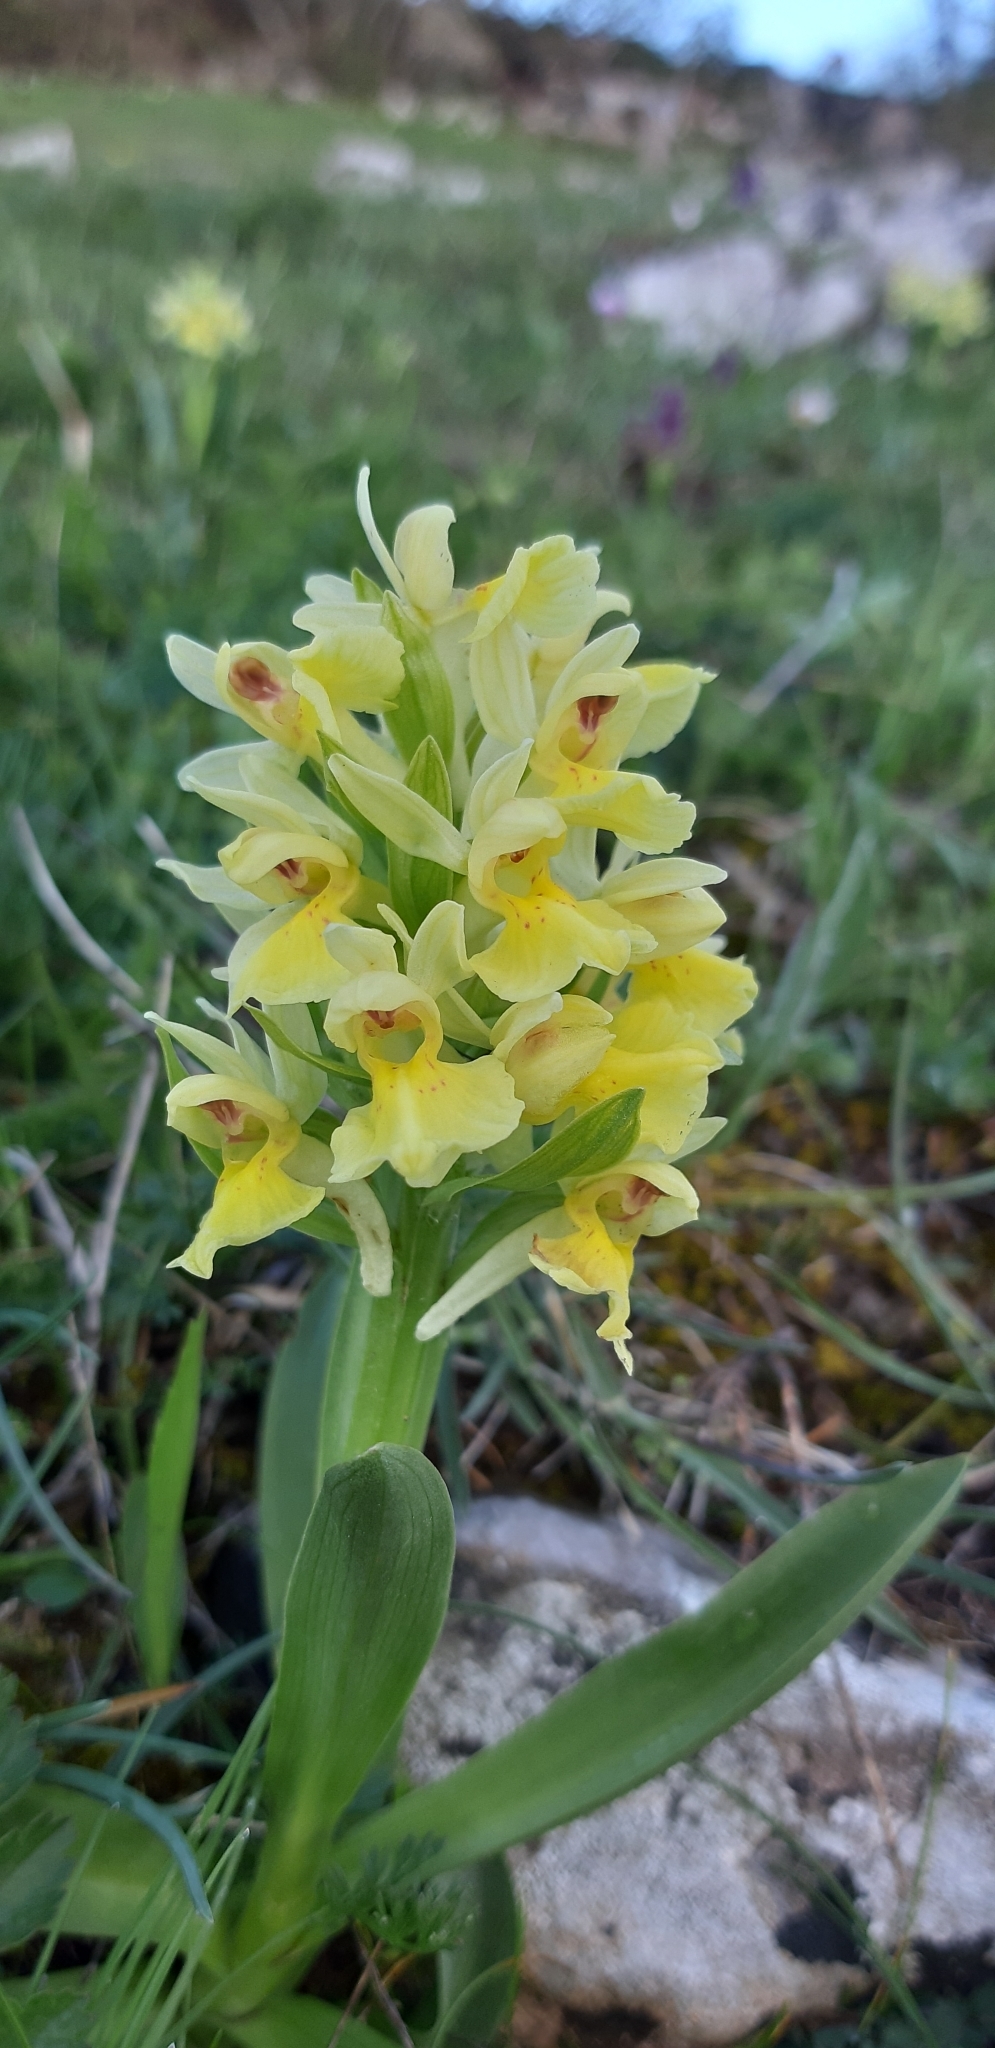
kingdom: Plantae
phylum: Tracheophyta
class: Liliopsida
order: Asparagales
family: Orchidaceae
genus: Dactylorhiza
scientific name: Dactylorhiza sambucina
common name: Elder-flowered orchid
